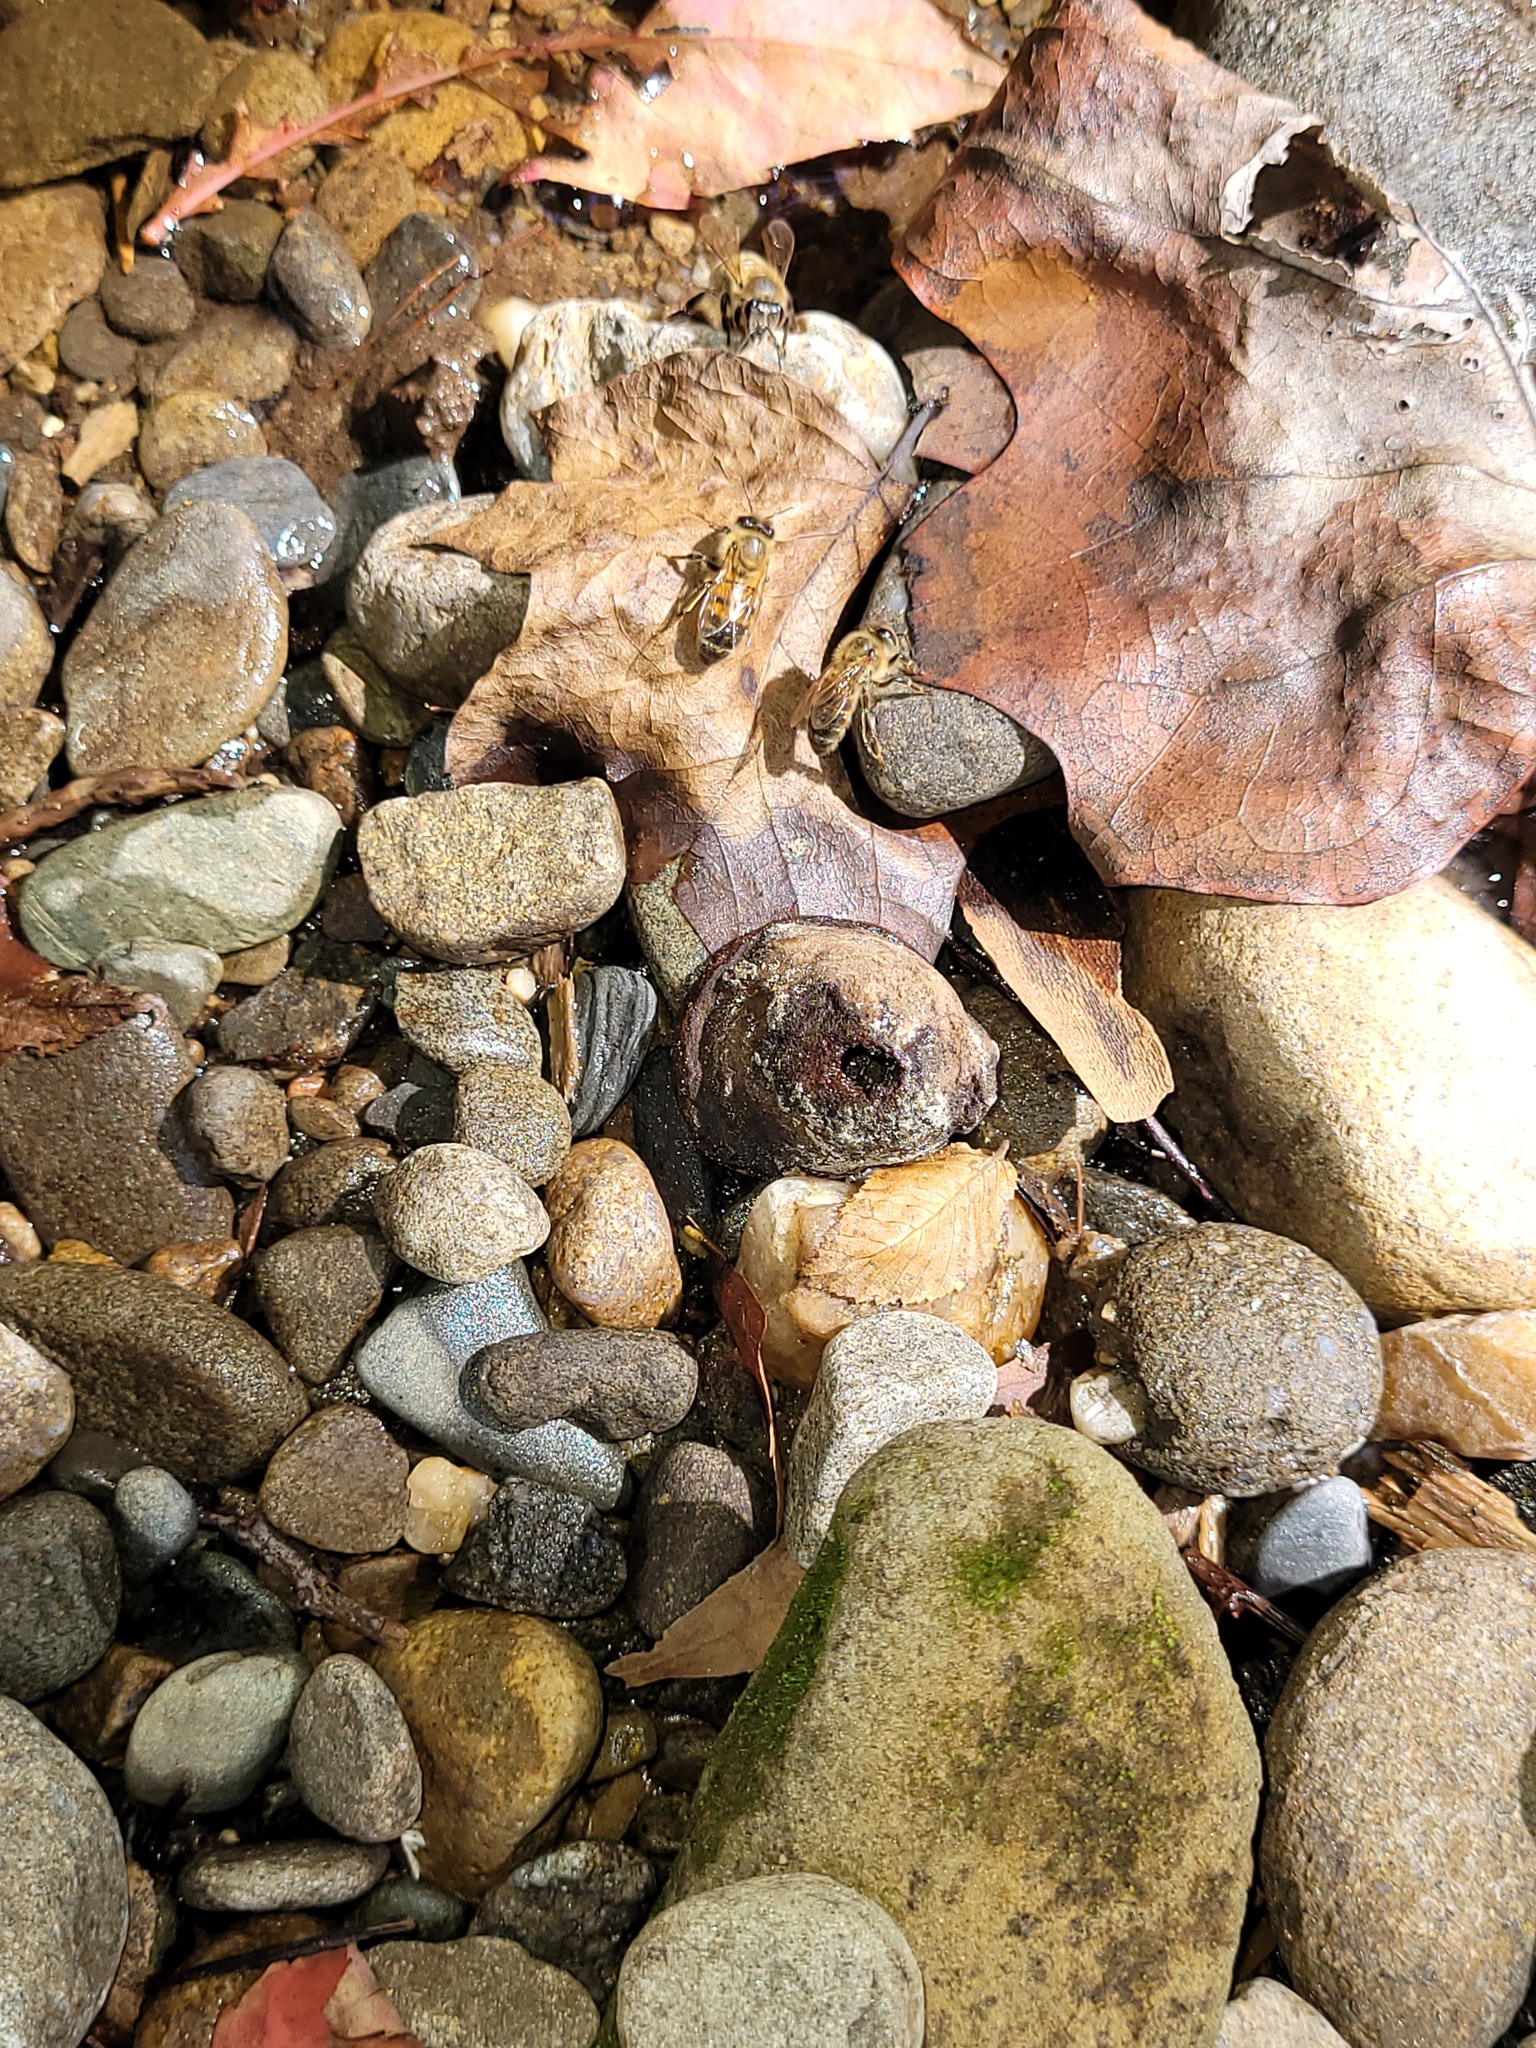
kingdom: Animalia
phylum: Arthropoda
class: Insecta
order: Hymenoptera
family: Apidae
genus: Apis
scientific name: Apis mellifera
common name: Honey bee
